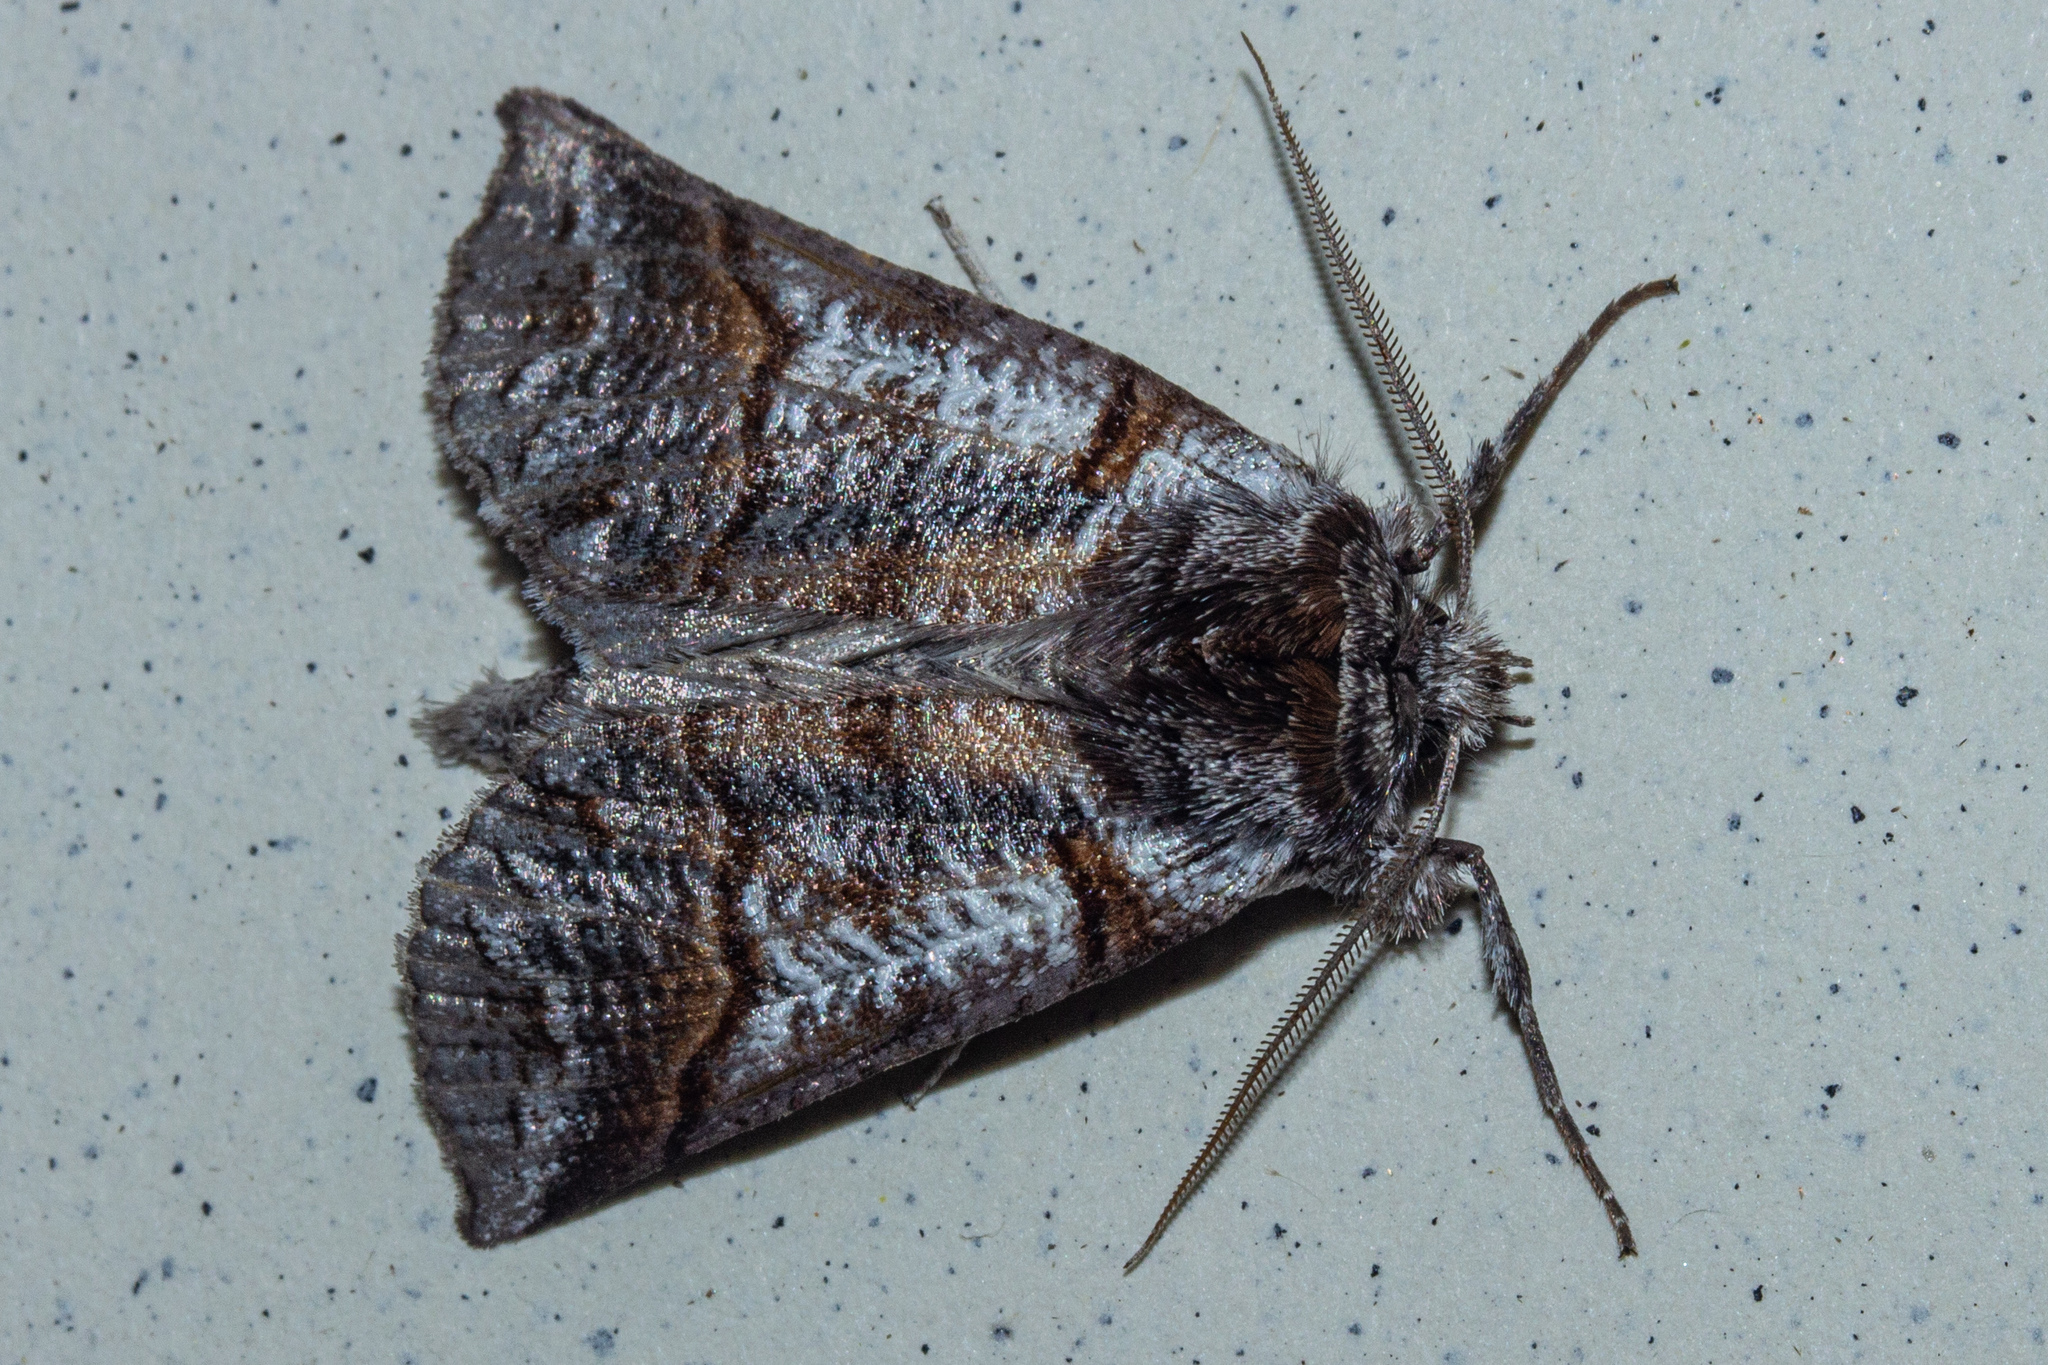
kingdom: Animalia
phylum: Arthropoda
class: Insecta
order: Lepidoptera
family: Geometridae
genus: Declana
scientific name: Declana
